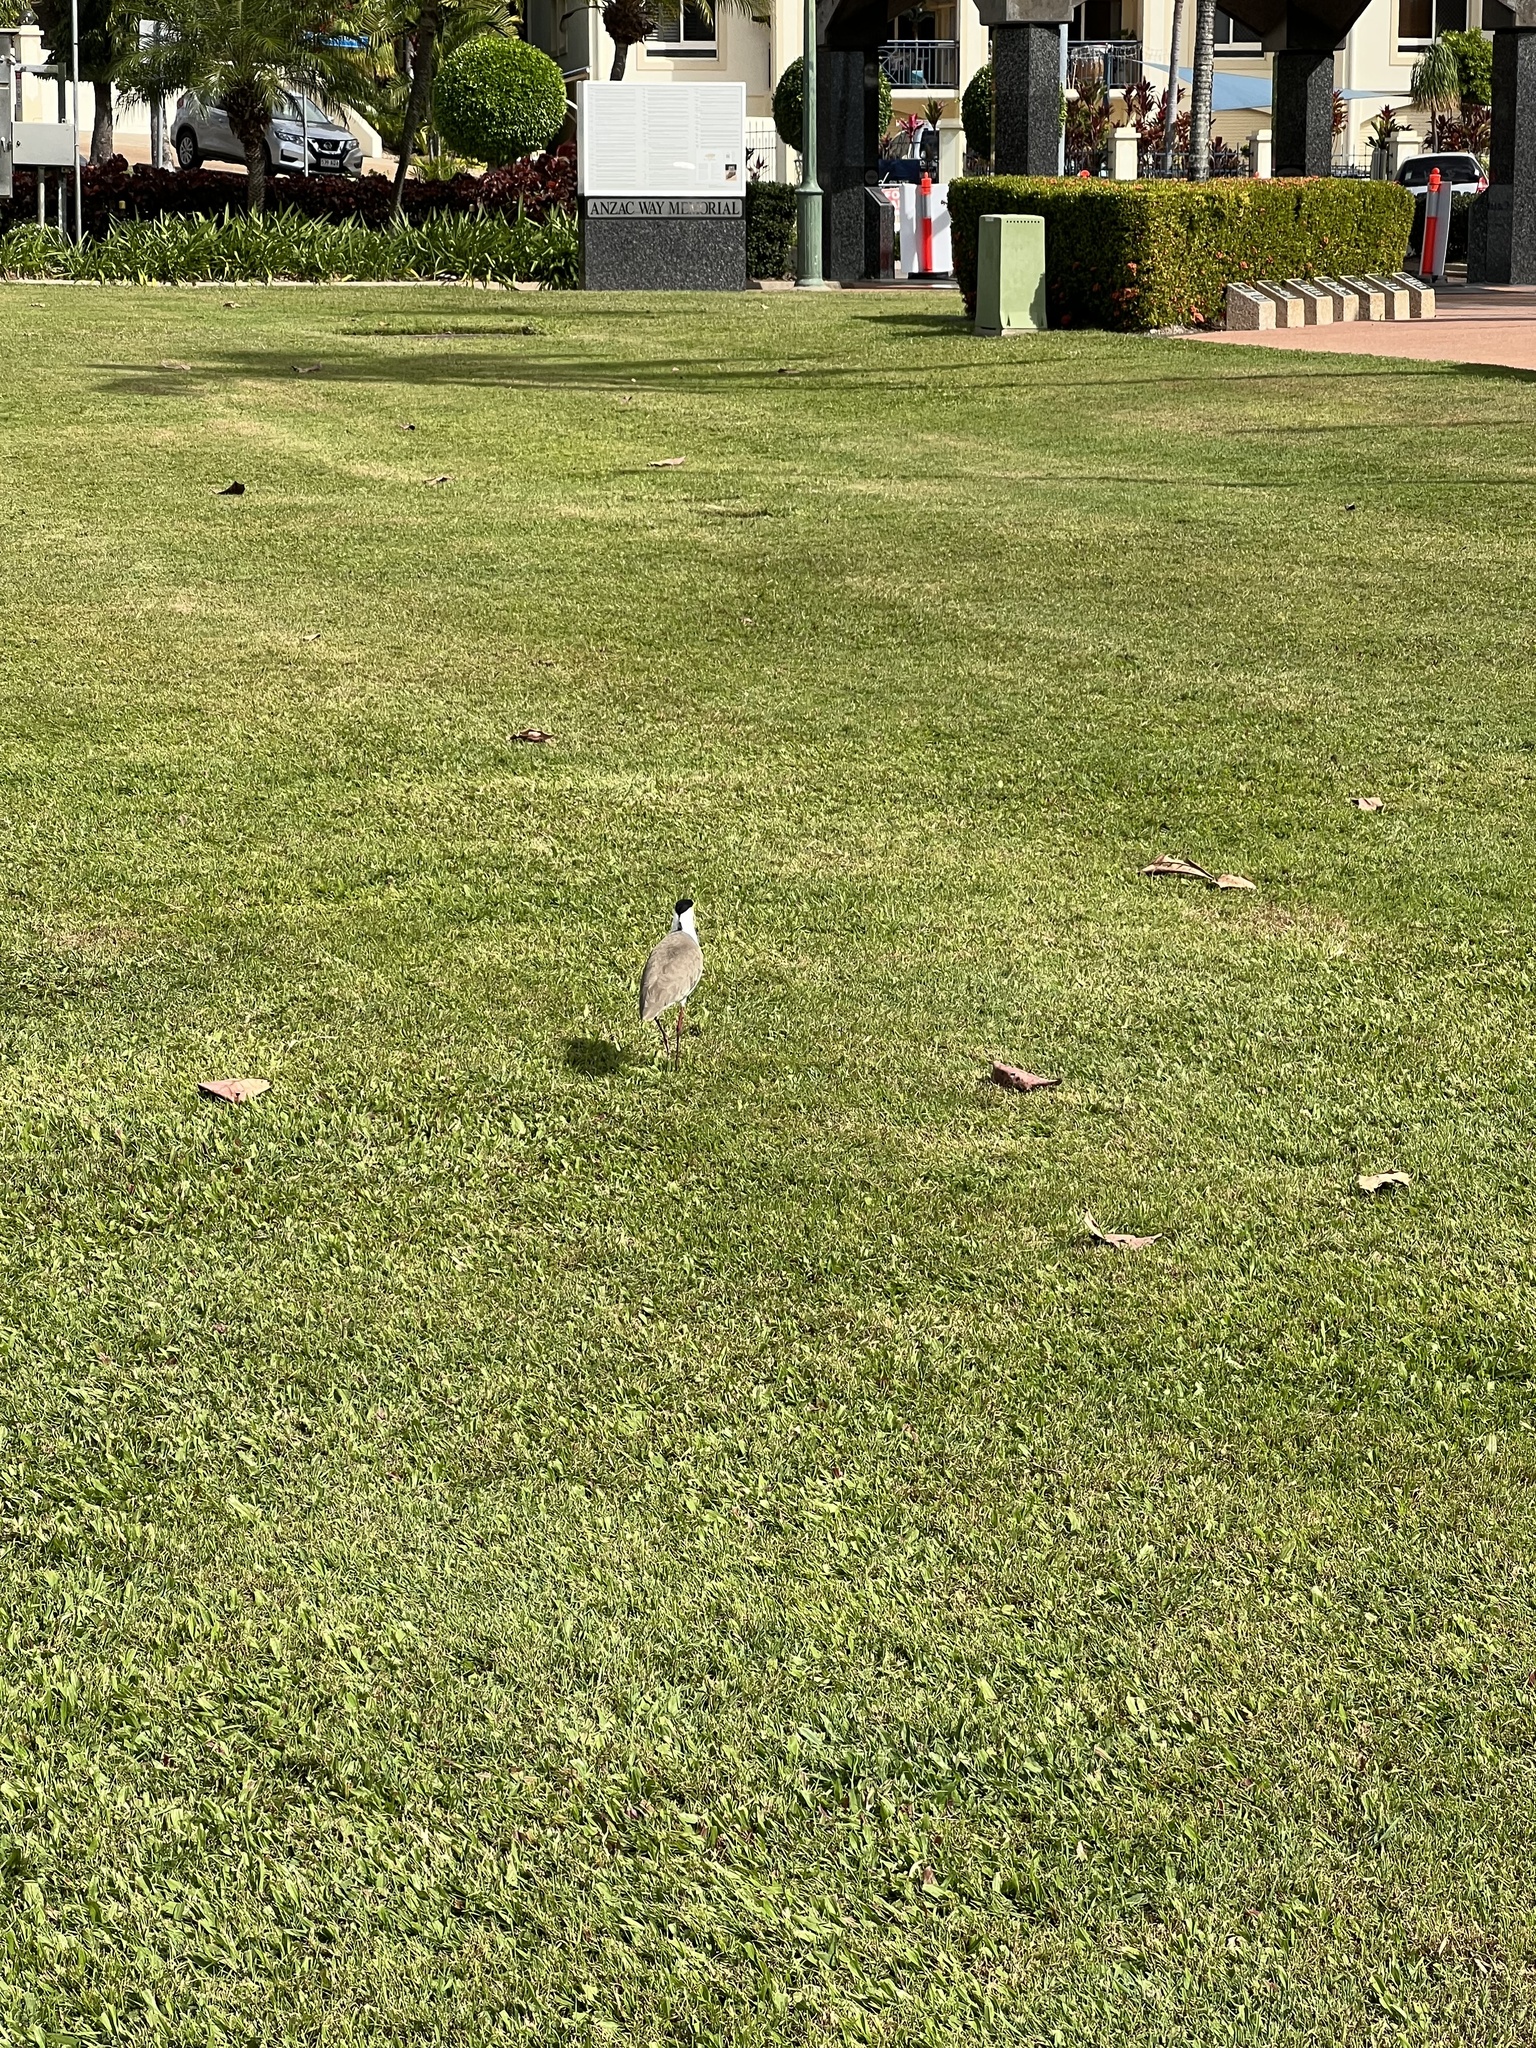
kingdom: Animalia
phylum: Chordata
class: Aves
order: Charadriiformes
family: Charadriidae
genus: Vanellus
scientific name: Vanellus miles
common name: Masked lapwing
